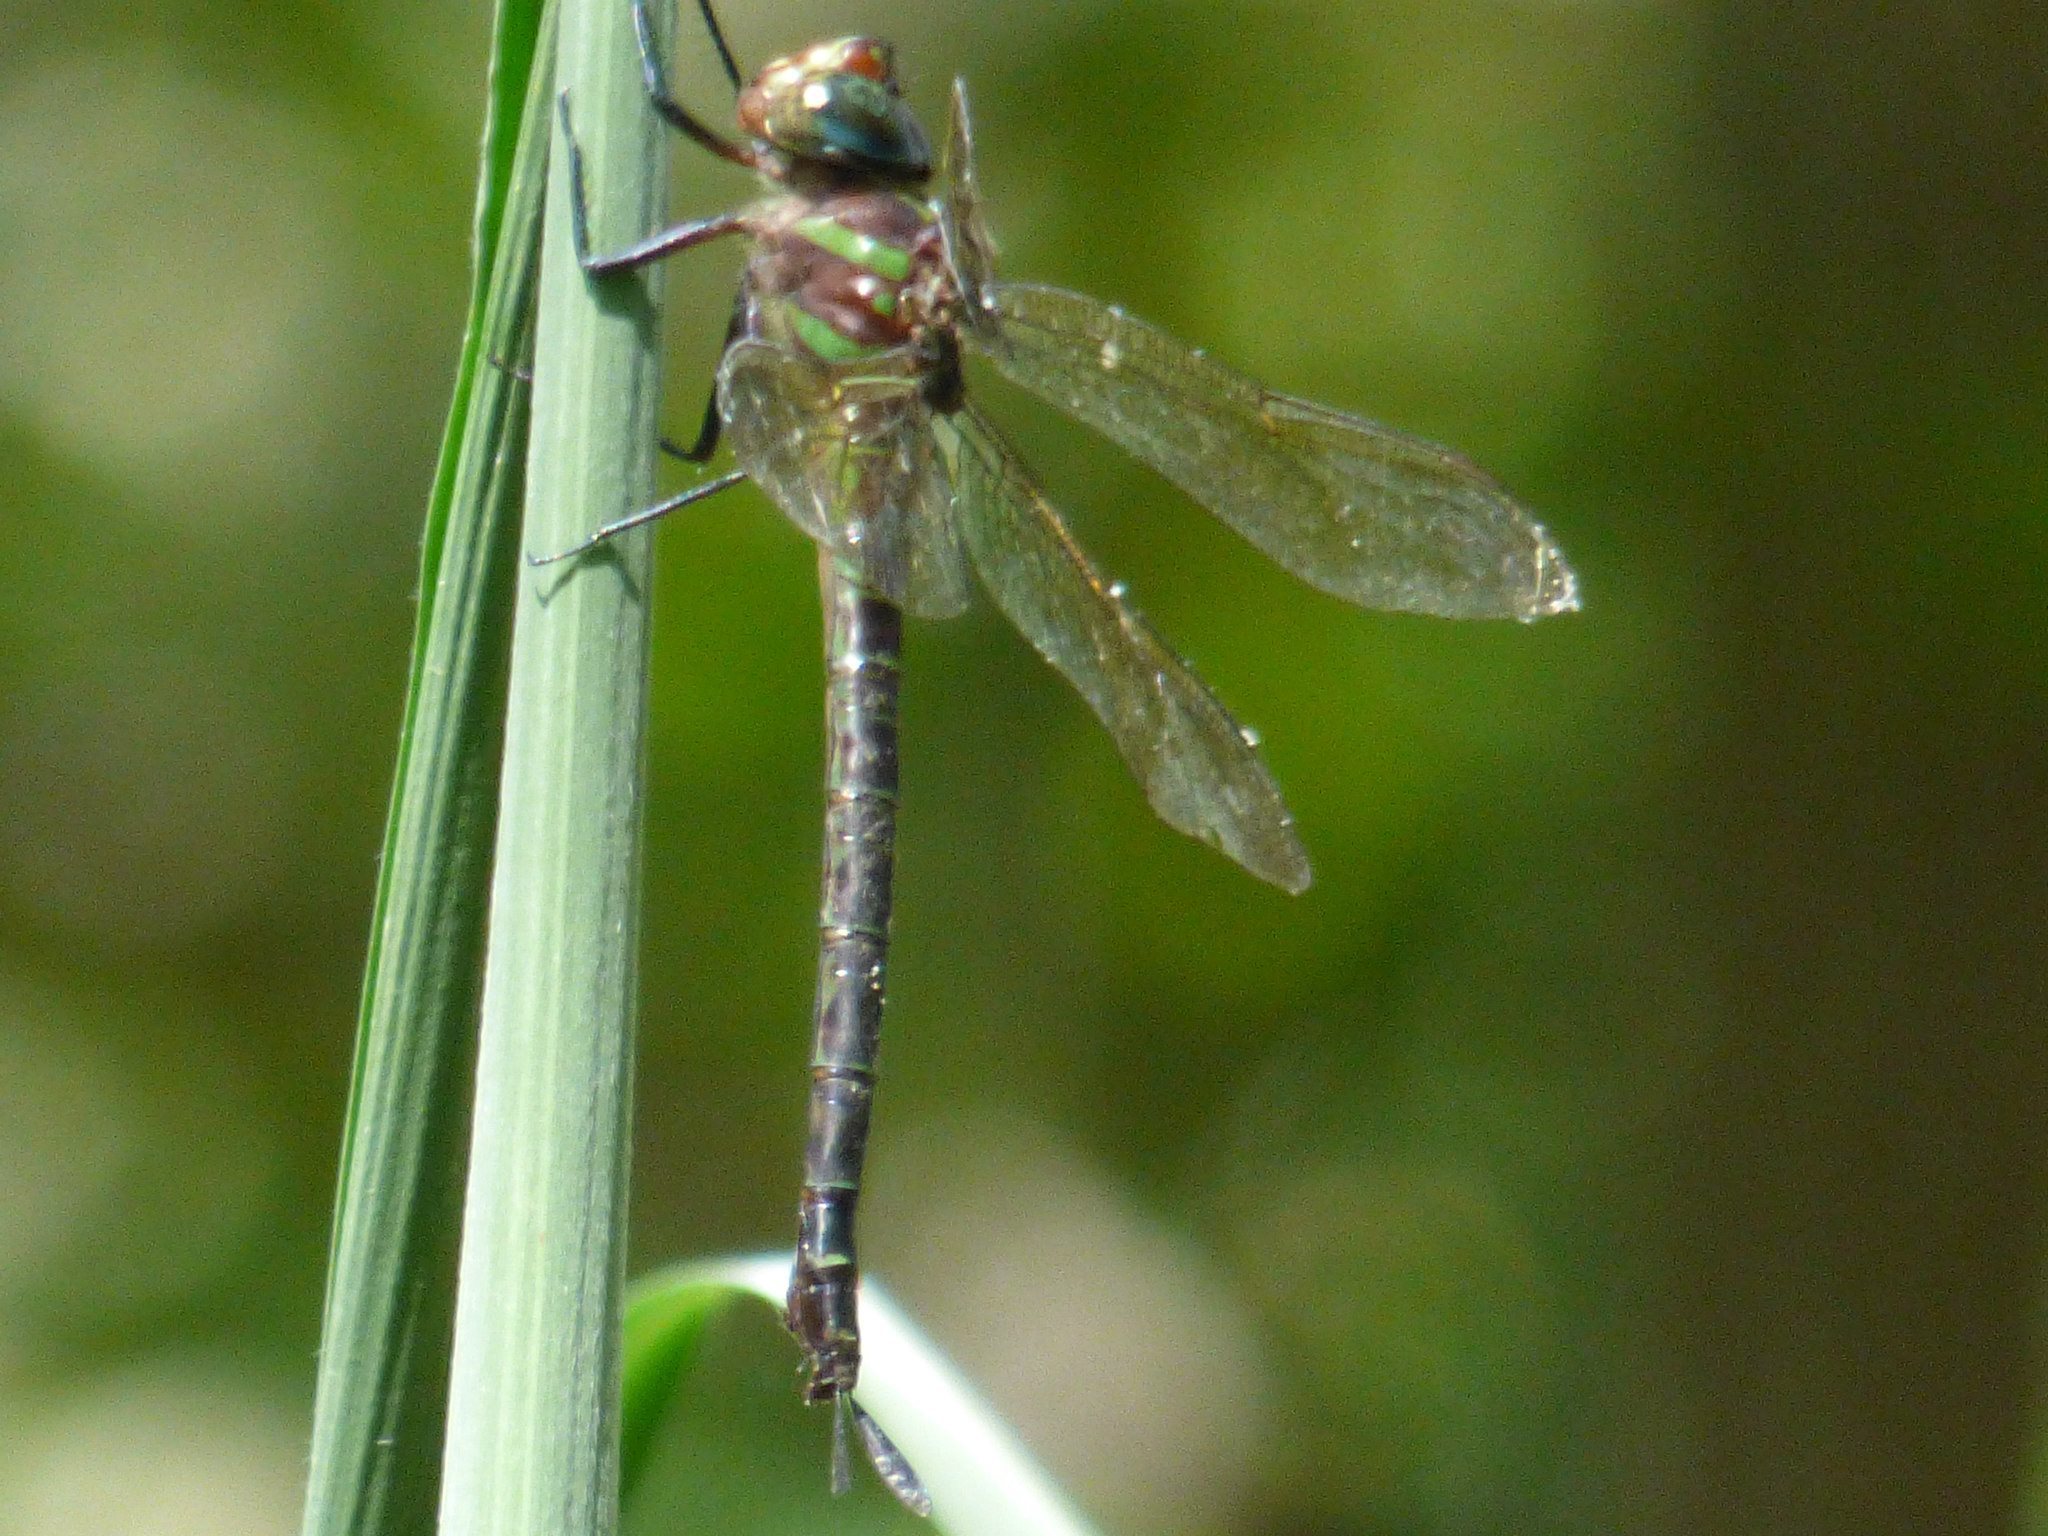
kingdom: Animalia
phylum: Arthropoda
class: Insecta
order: Odonata
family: Aeshnidae
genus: Epiaeschna
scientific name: Epiaeschna heros
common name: Swamp darner
